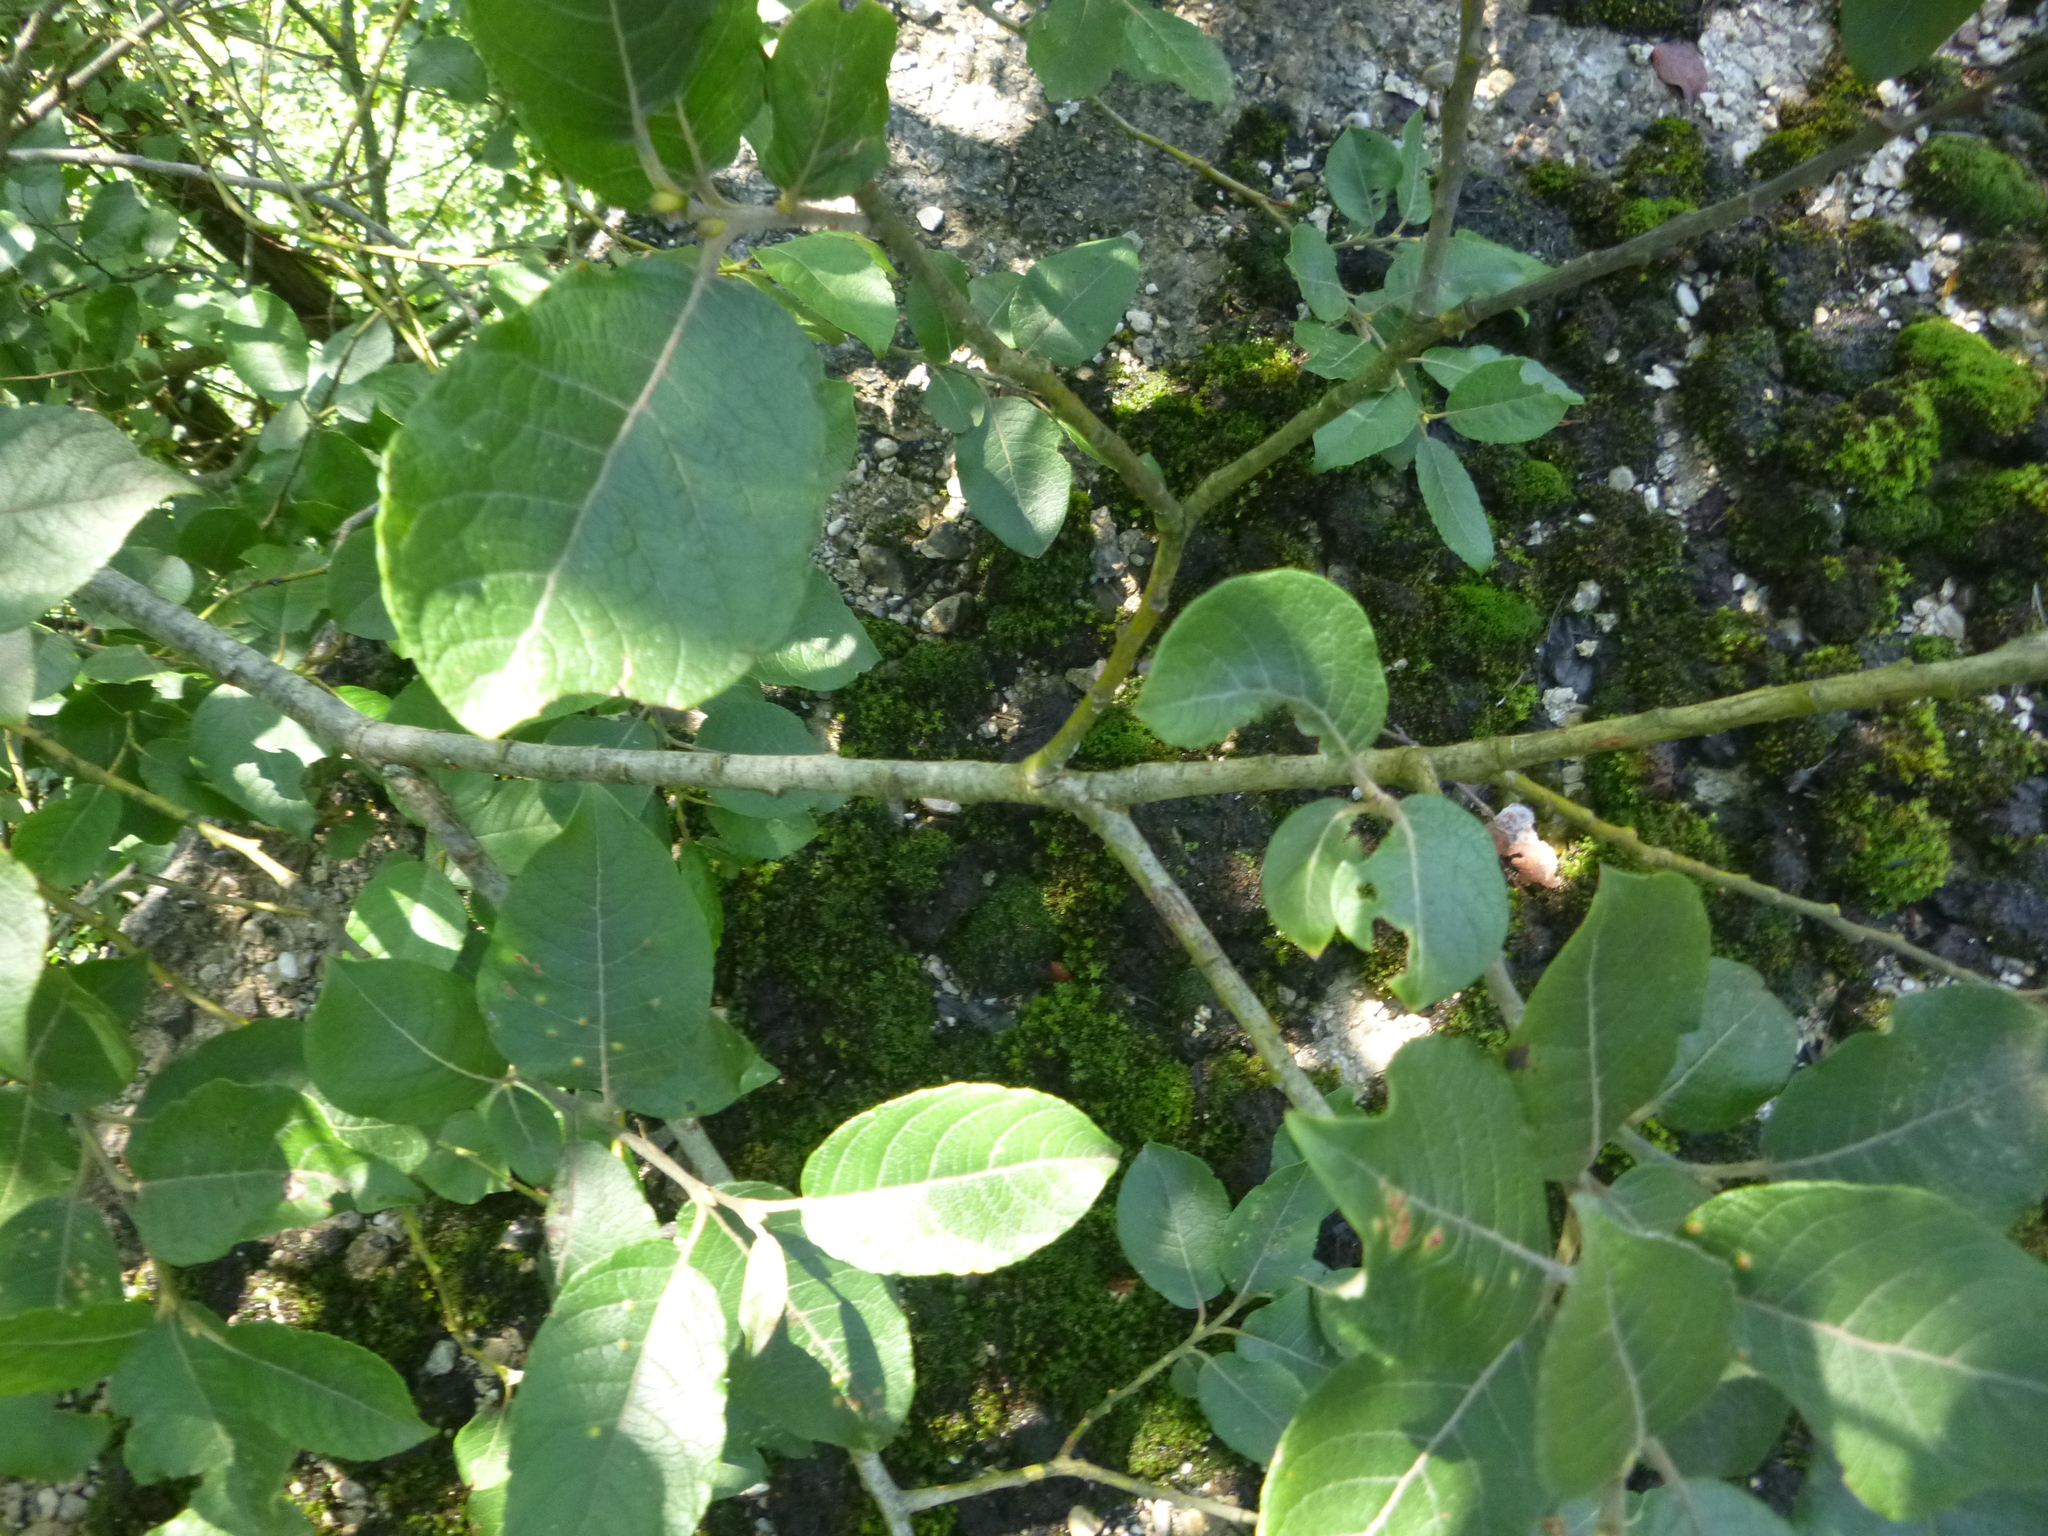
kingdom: Plantae
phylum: Tracheophyta
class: Magnoliopsida
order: Malpighiales
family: Salicaceae
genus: Salix
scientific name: Salix caprea
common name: Goat willow
